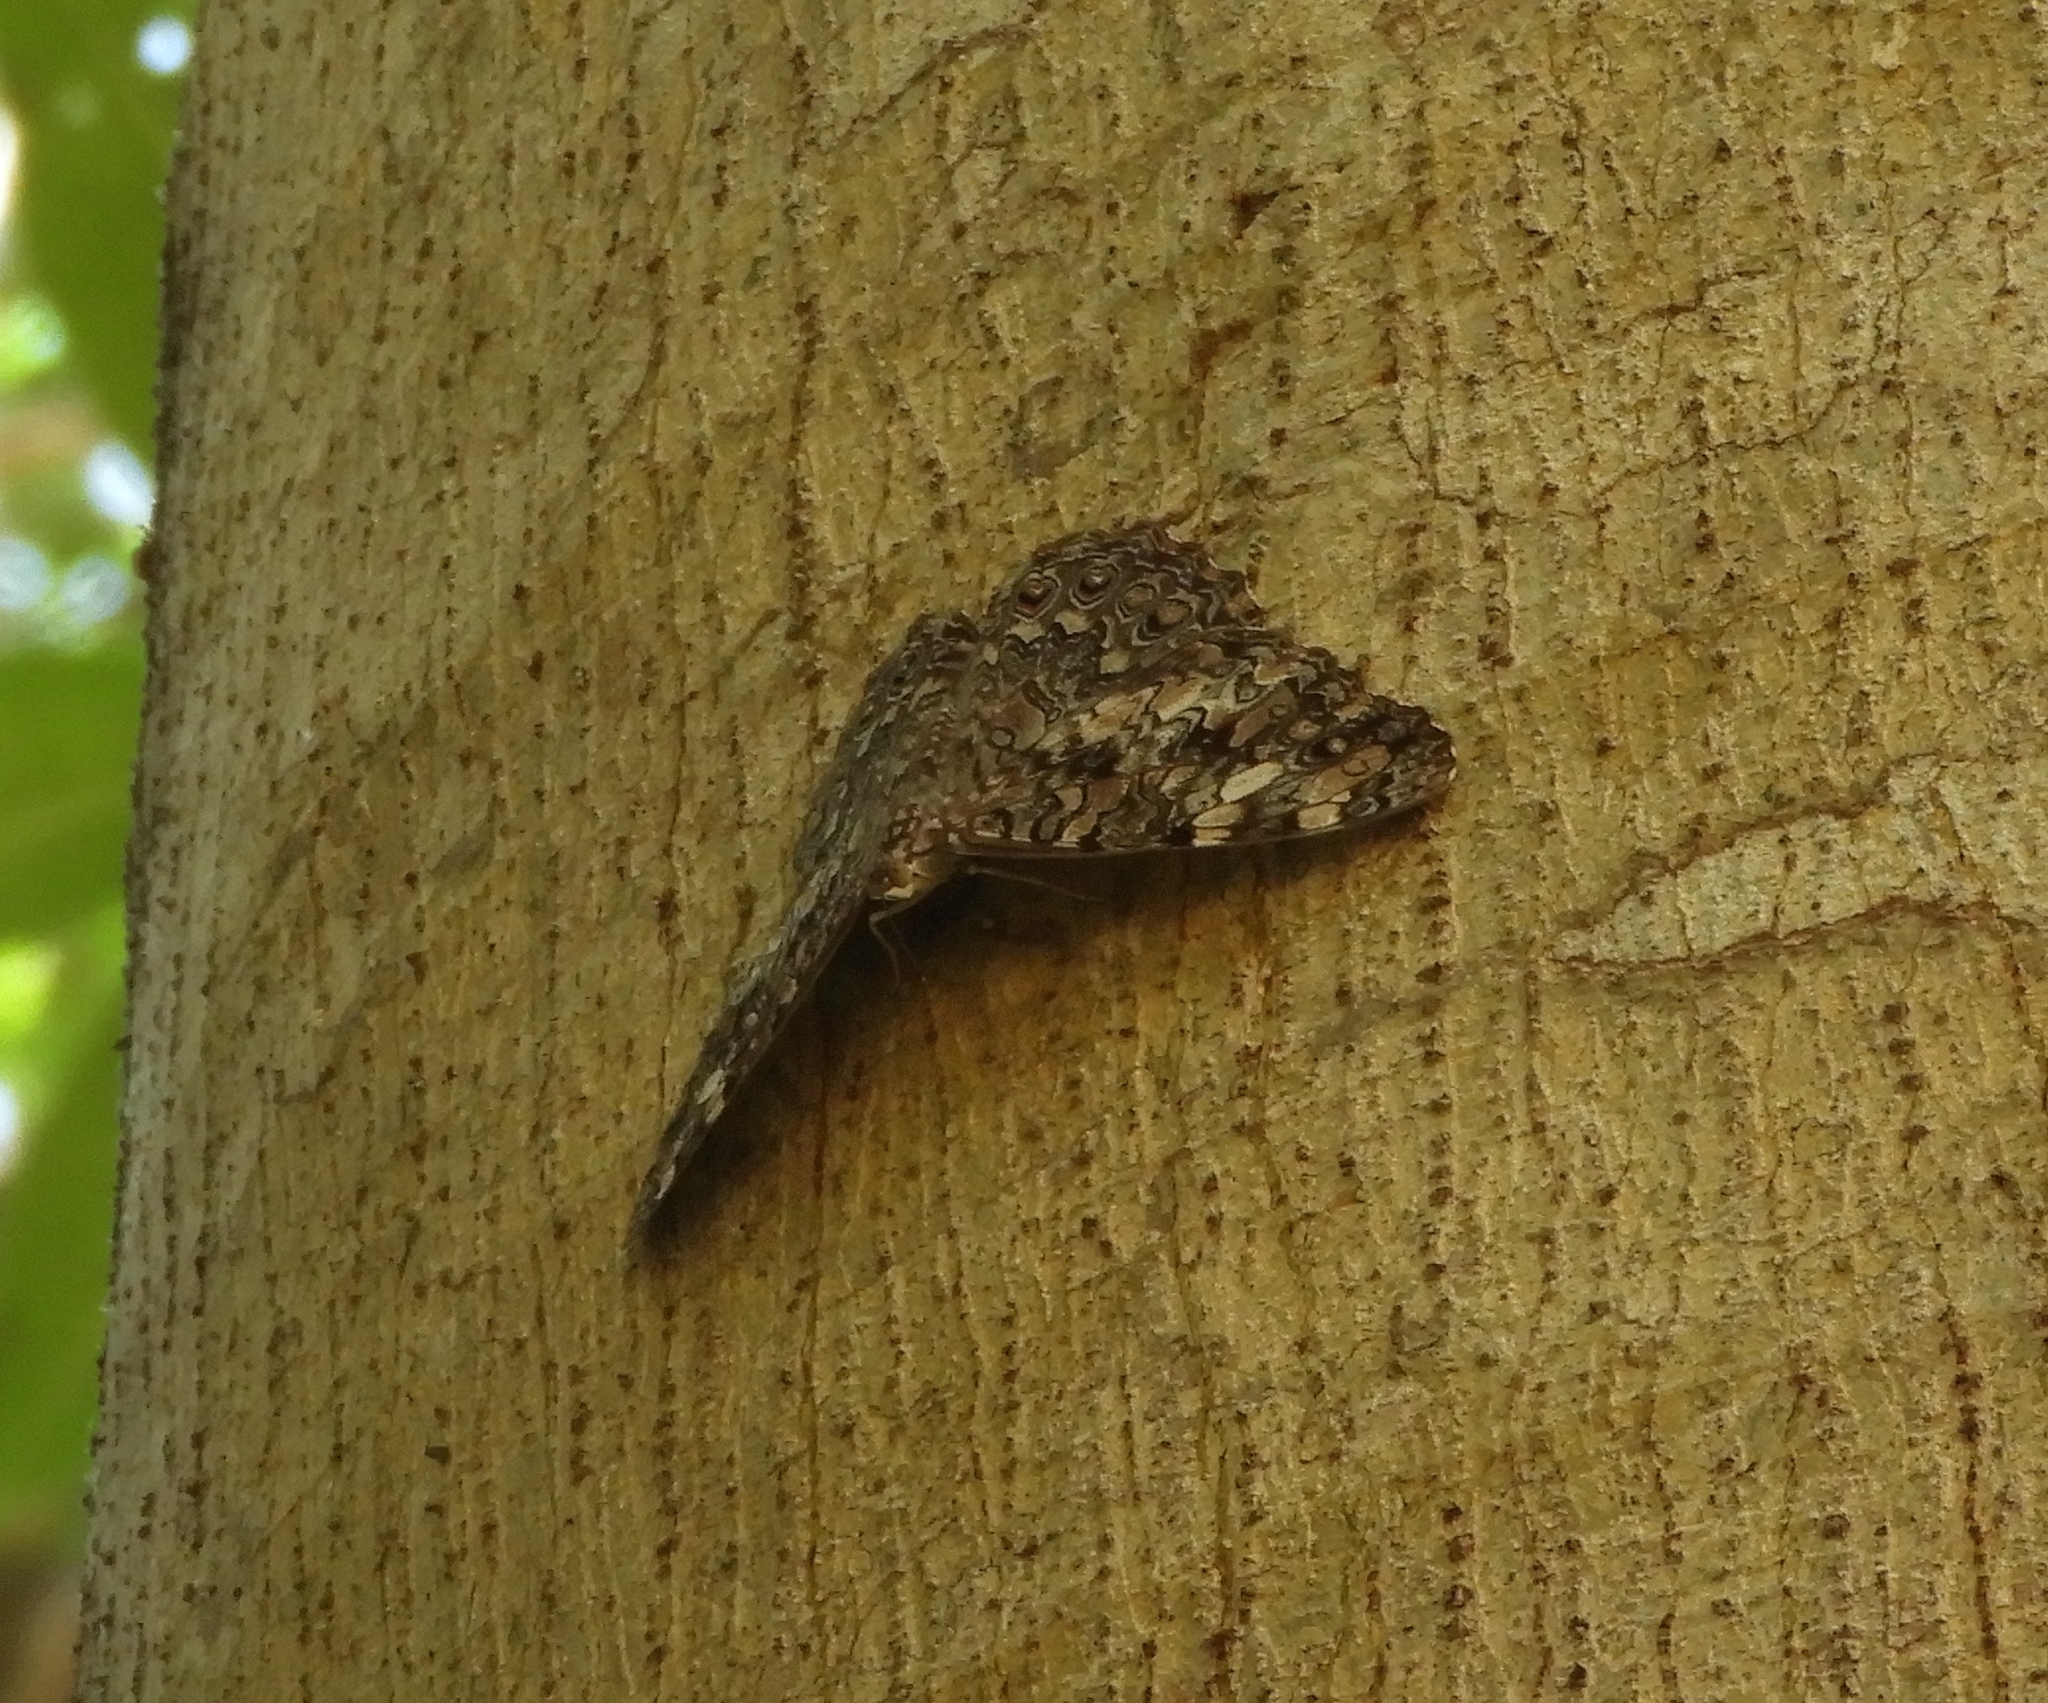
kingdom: Animalia
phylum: Arthropoda
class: Insecta
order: Lepidoptera
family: Nymphalidae
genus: Hamadryas
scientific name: Hamadryas februa
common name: Gray cracker
